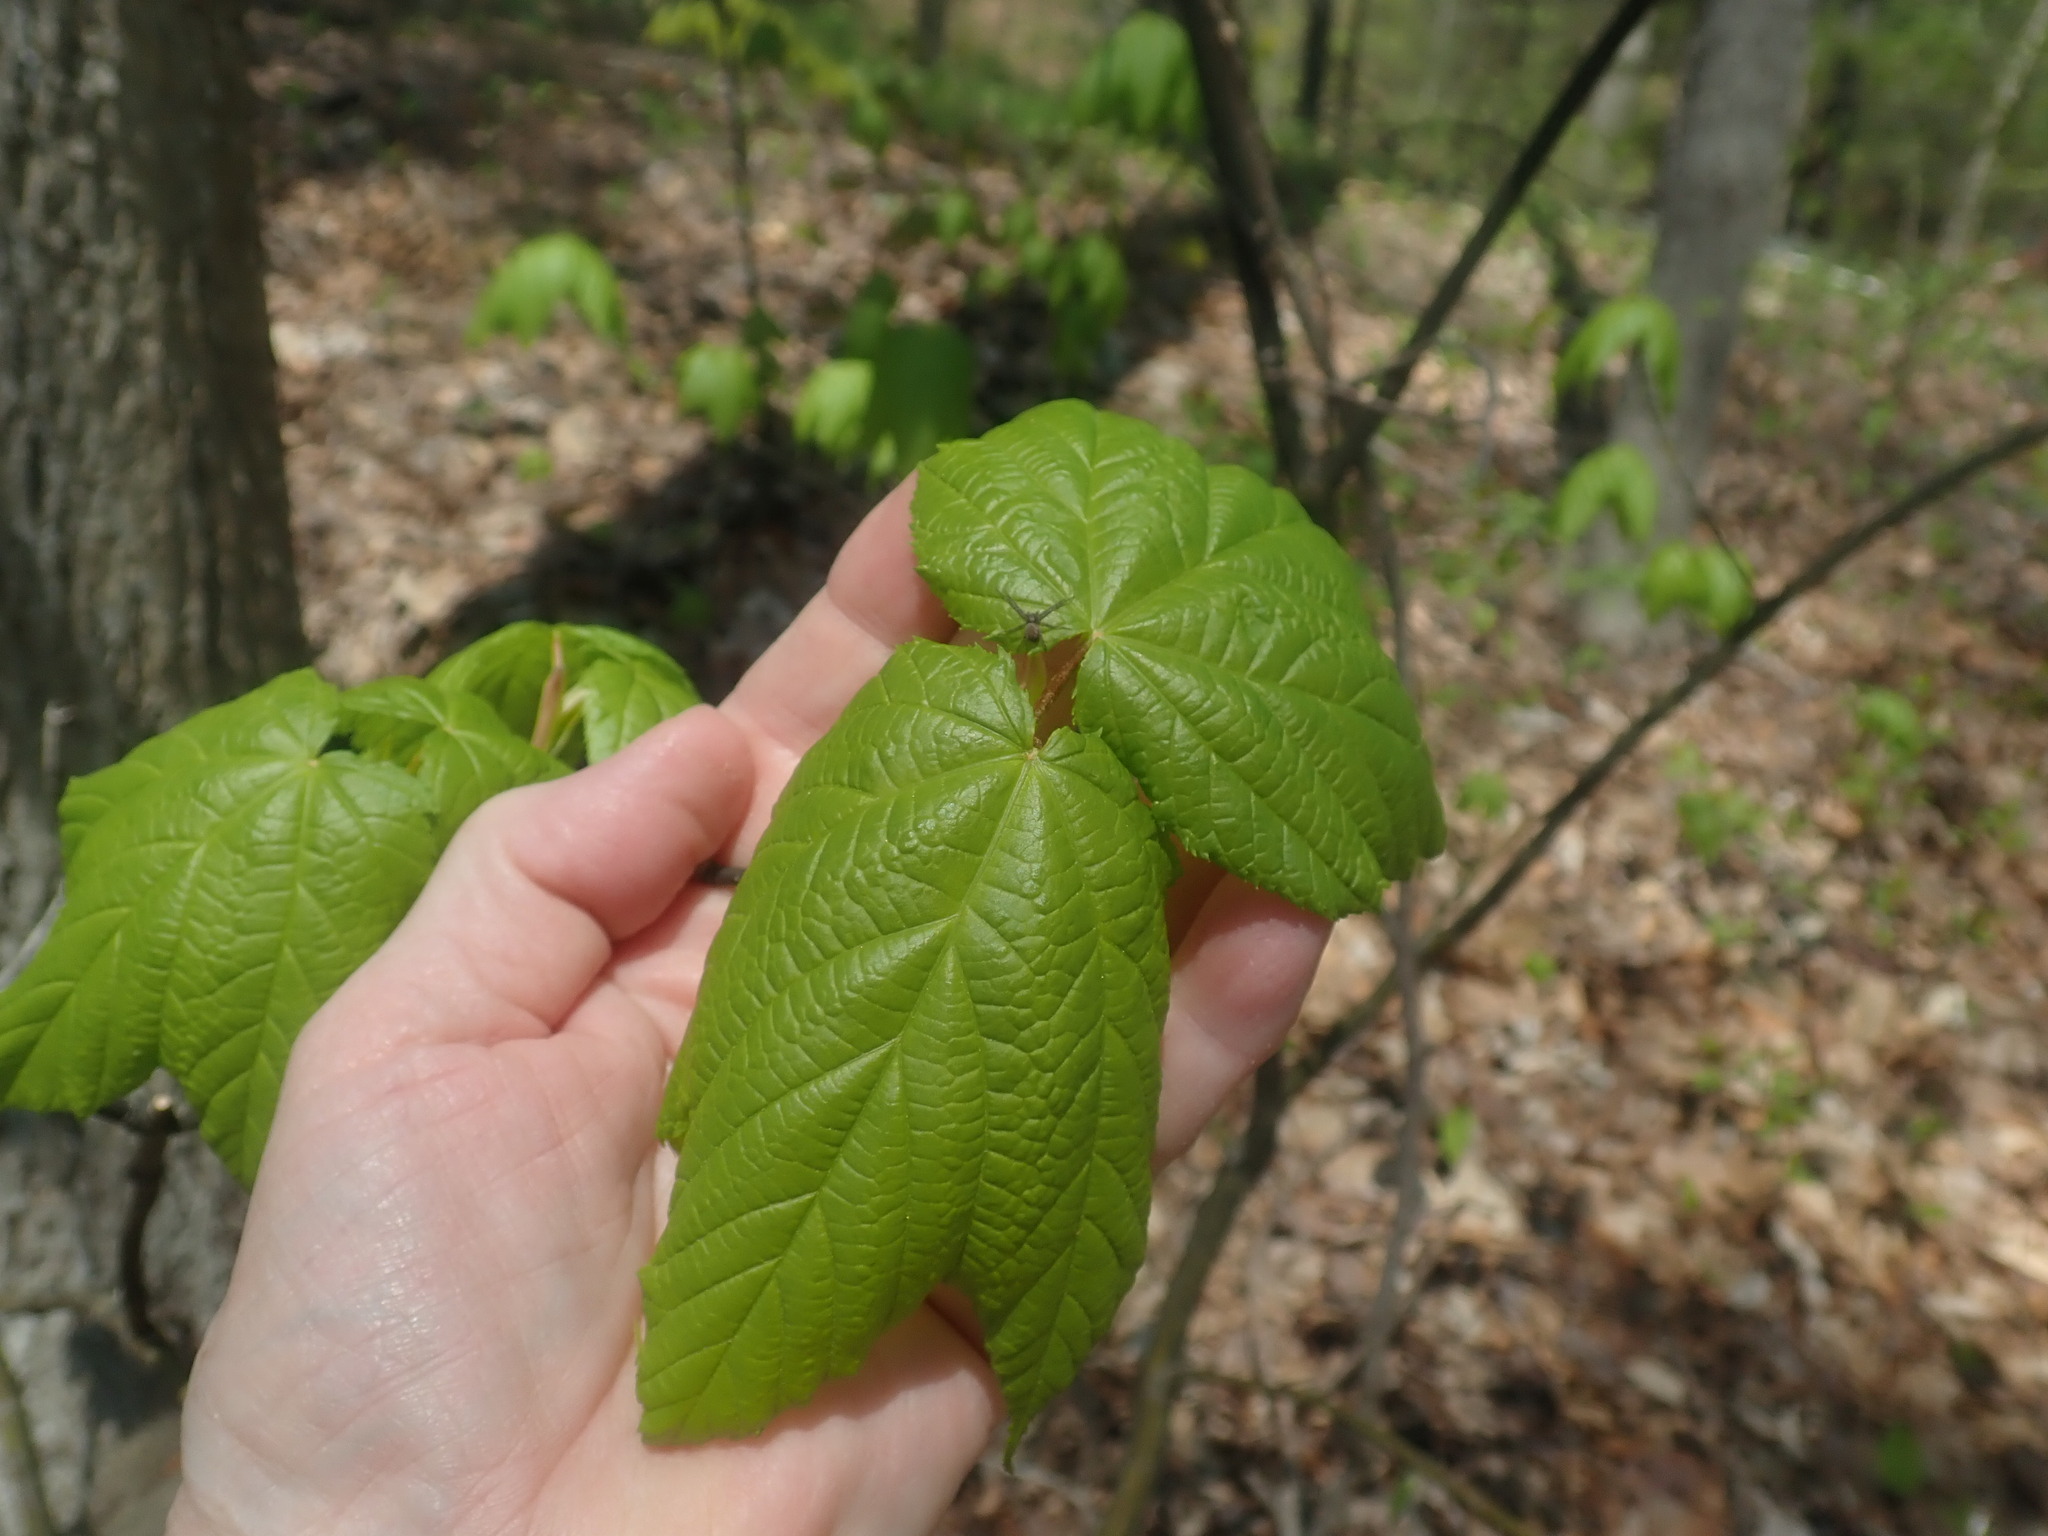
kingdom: Plantae
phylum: Tracheophyta
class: Magnoliopsida
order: Sapindales
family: Sapindaceae
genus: Acer
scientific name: Acer pensylvanicum
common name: Moosewood
